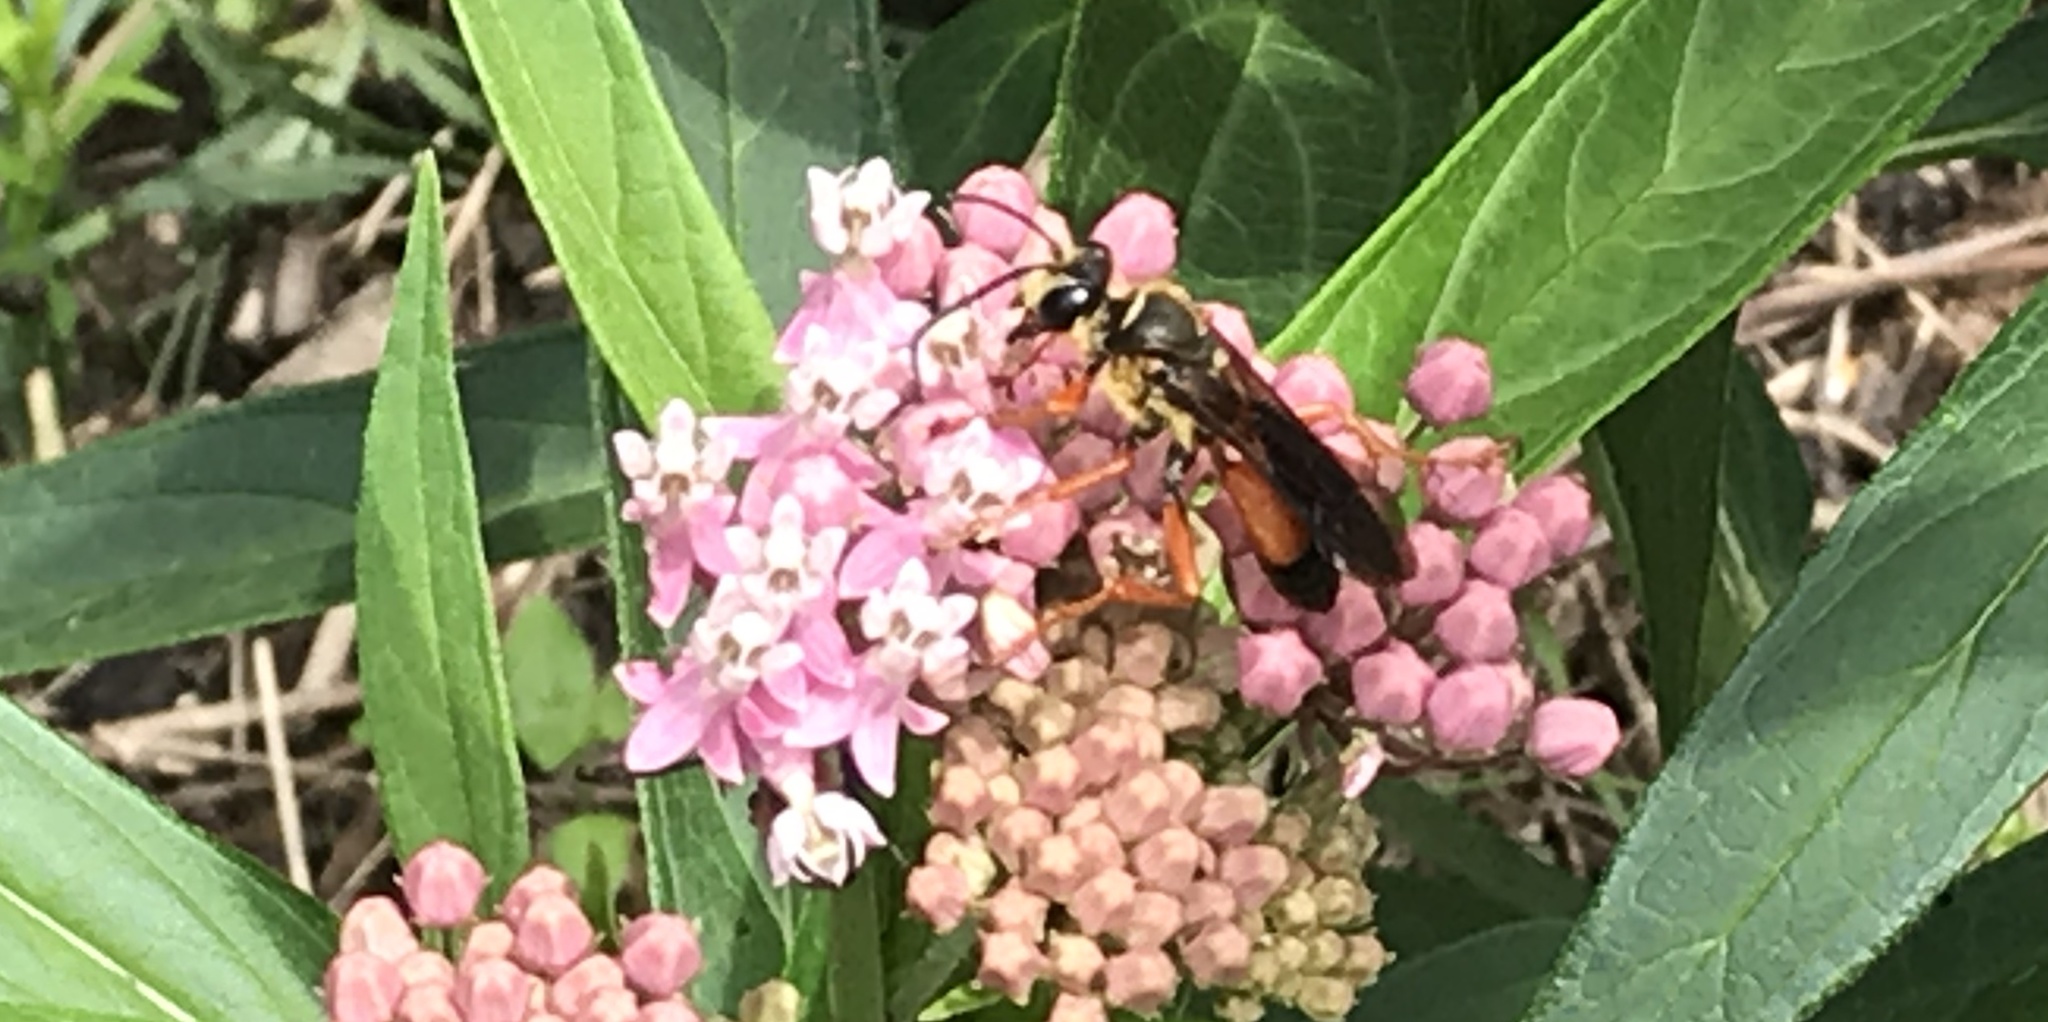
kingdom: Animalia
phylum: Arthropoda
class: Insecta
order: Hymenoptera
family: Sphecidae
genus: Sphex
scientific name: Sphex ichneumoneus
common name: Great golden digger wasp
